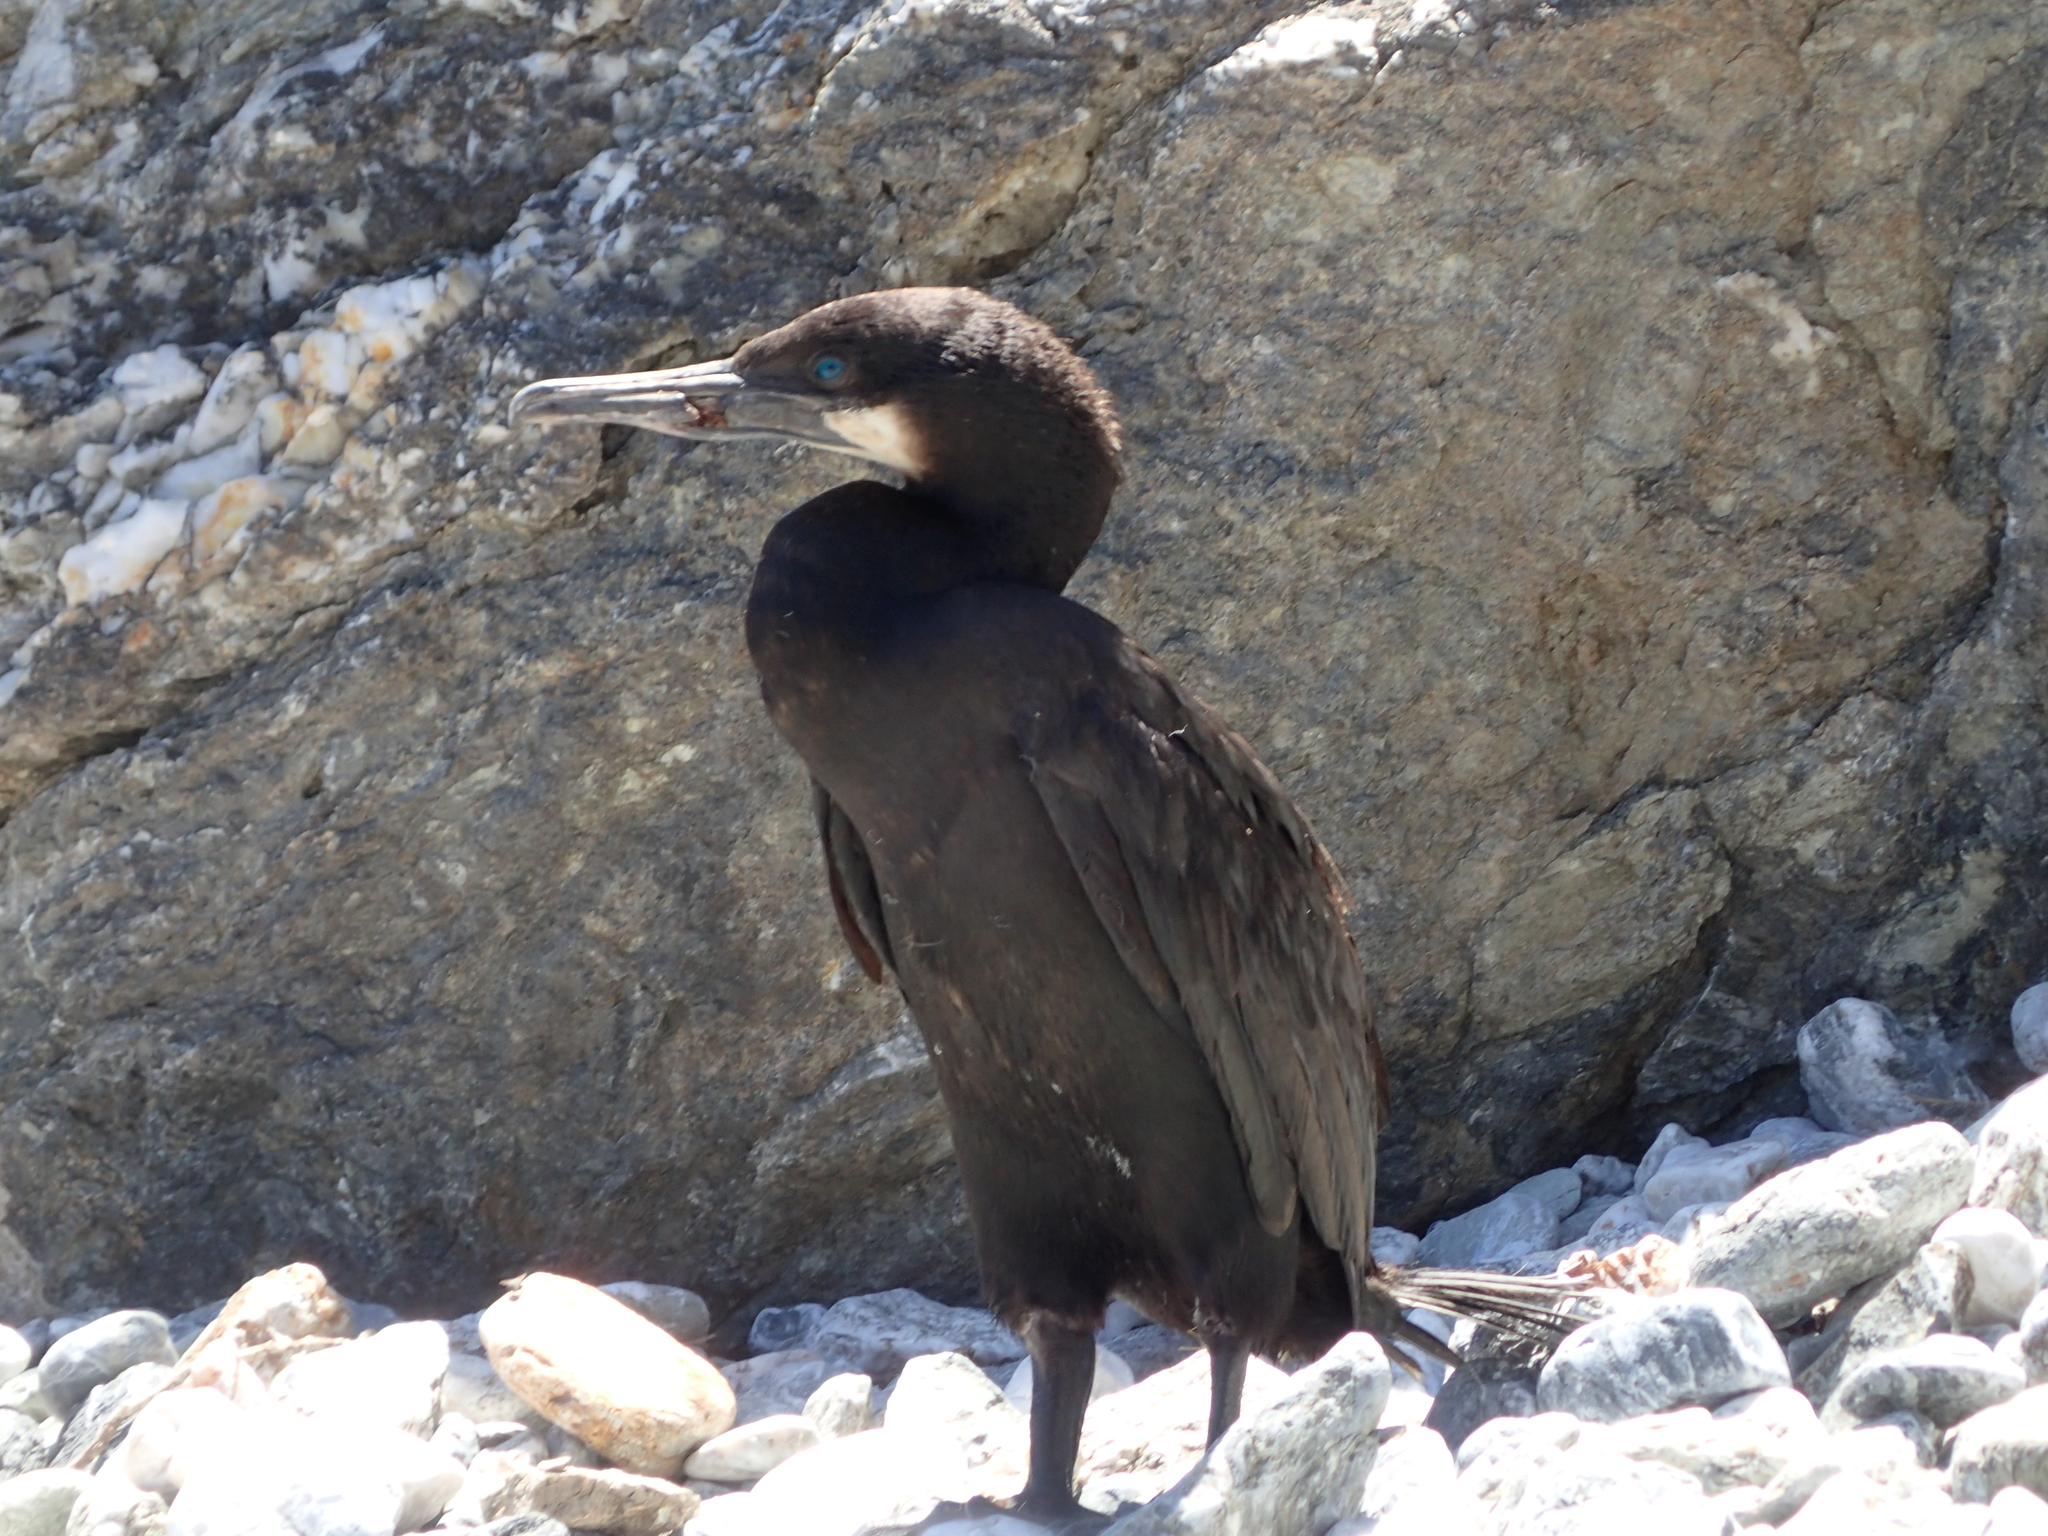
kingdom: Animalia
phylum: Chordata
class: Aves
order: Suliformes
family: Phalacrocoracidae
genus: Urile
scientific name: Urile penicillatus
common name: Brandt's cormorant
